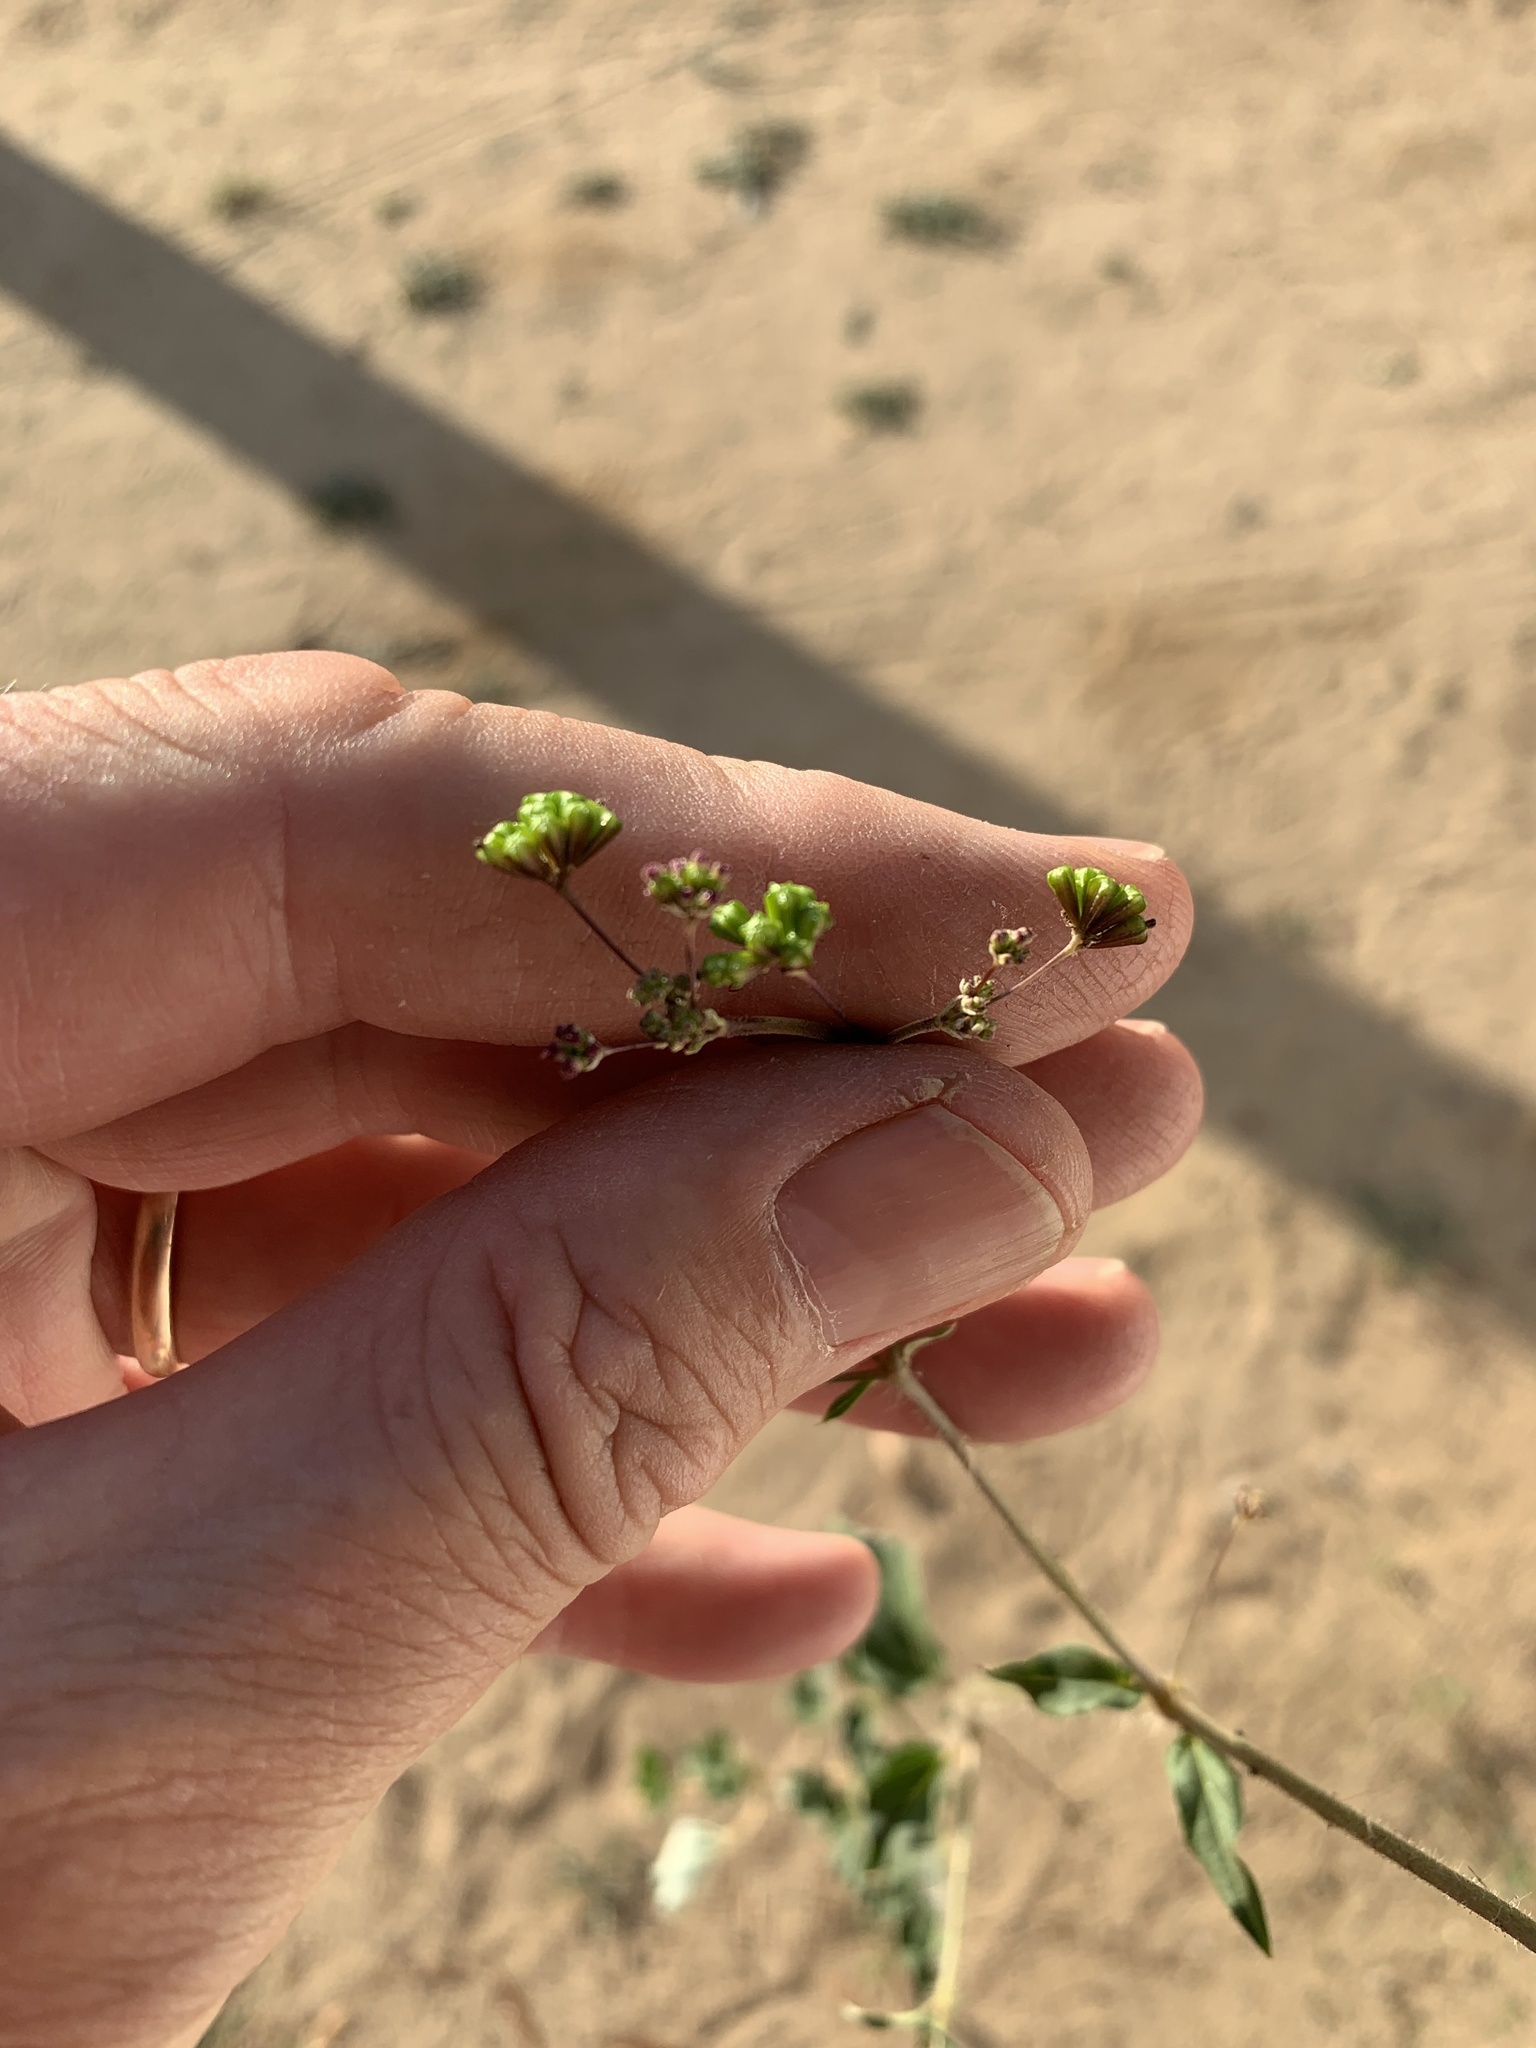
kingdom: Plantae
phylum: Tracheophyta
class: Magnoliopsida
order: Caryophyllales
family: Nyctaginaceae
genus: Boerhavia
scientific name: Boerhavia erecta
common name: Erect spiderling
